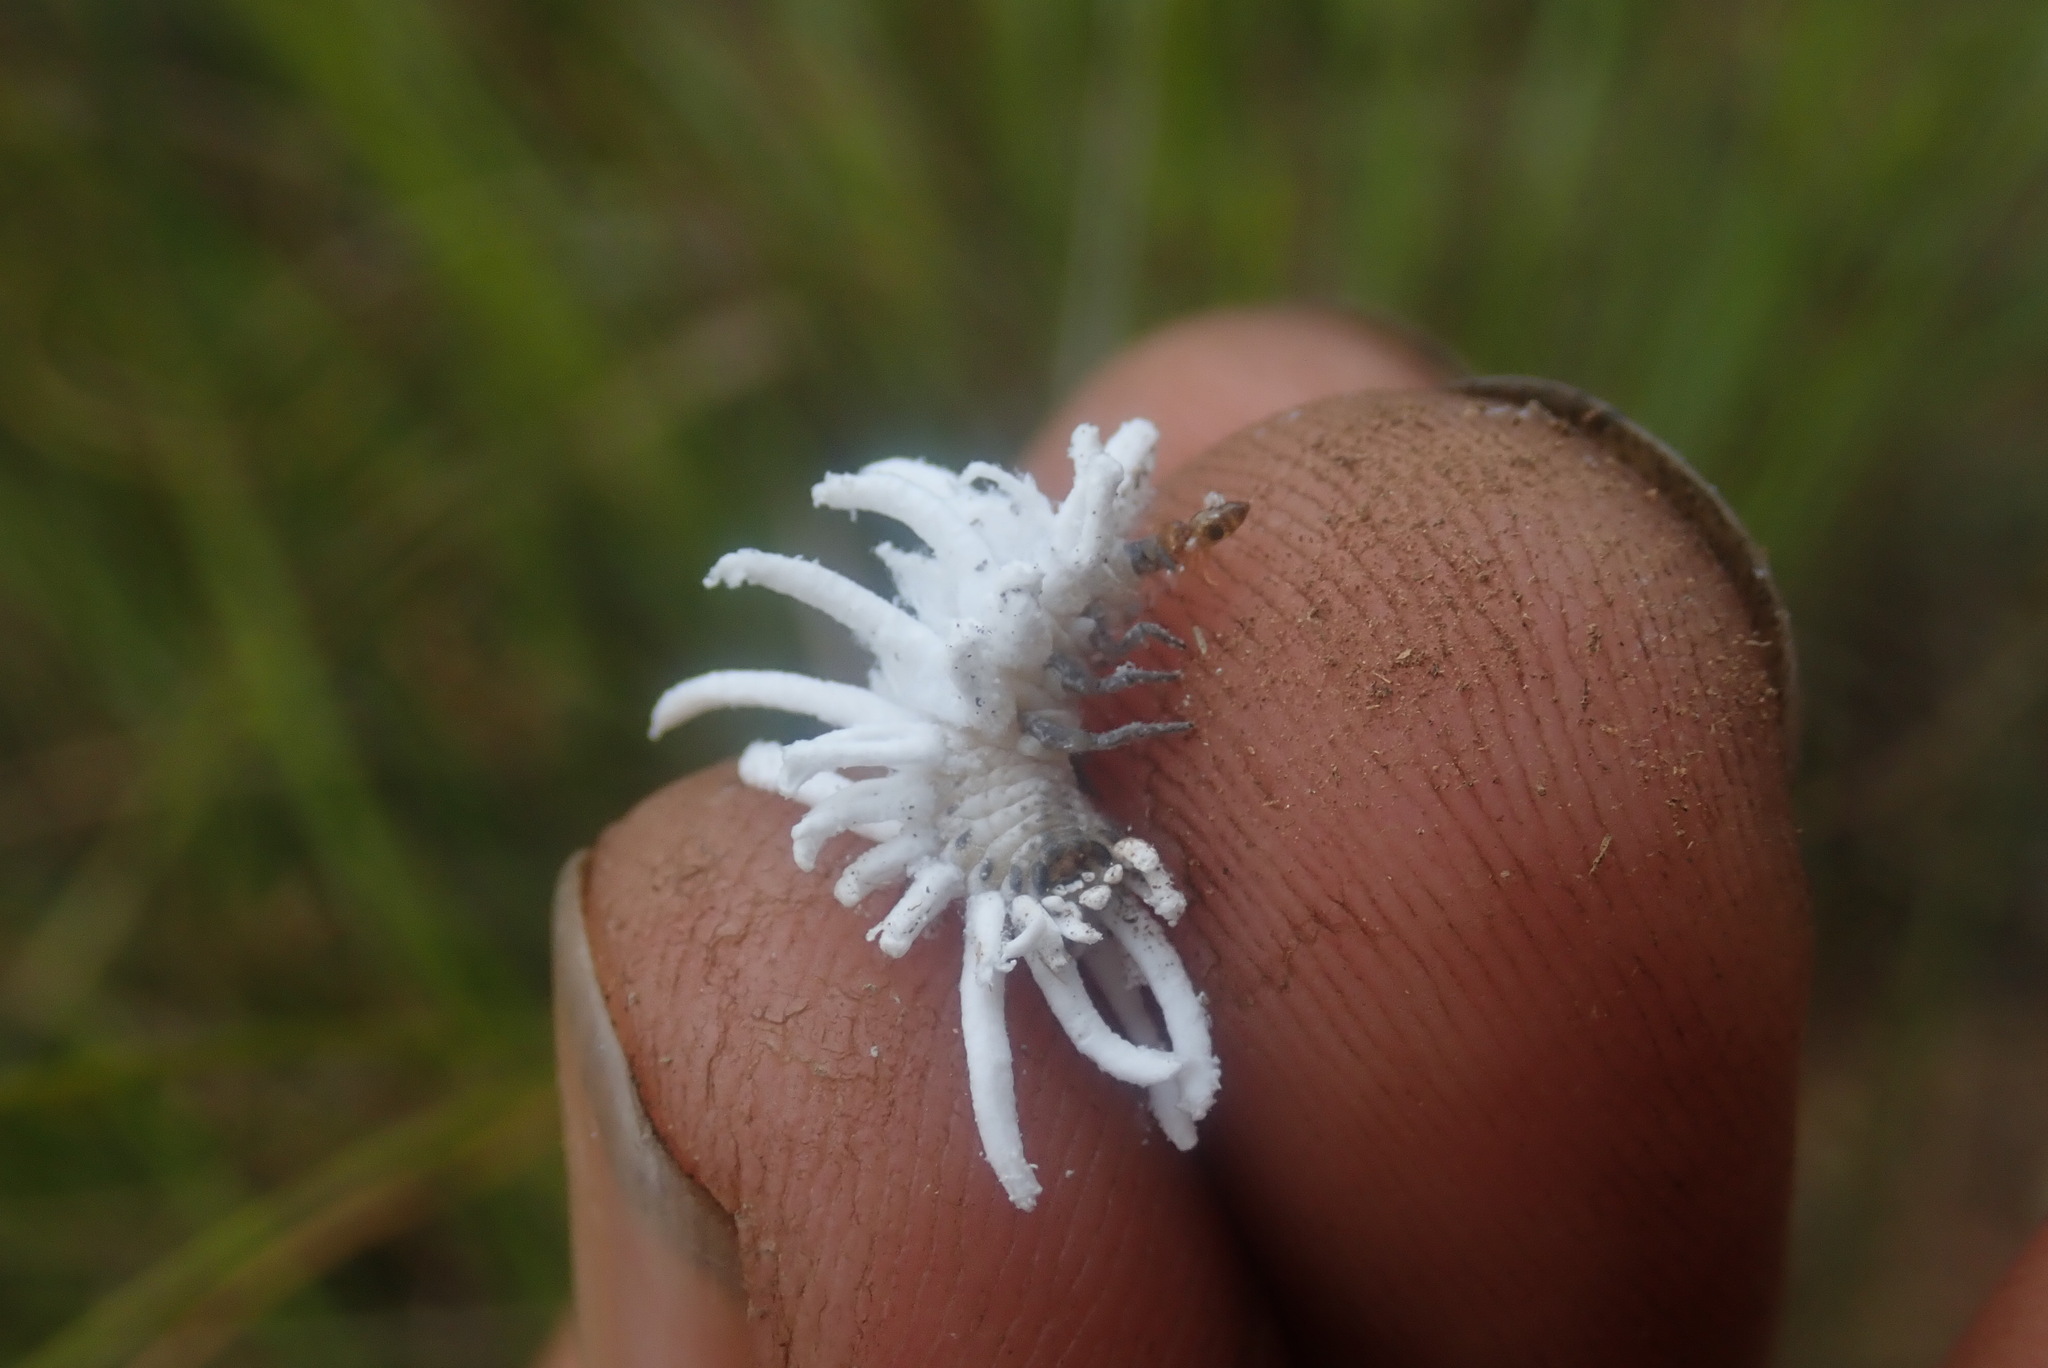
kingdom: Animalia
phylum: Arthropoda
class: Insecta
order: Coleoptera
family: Coccinellidae
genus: Cryptolaemus
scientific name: Cryptolaemus montrouzieri
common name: Mealybug destroyer
